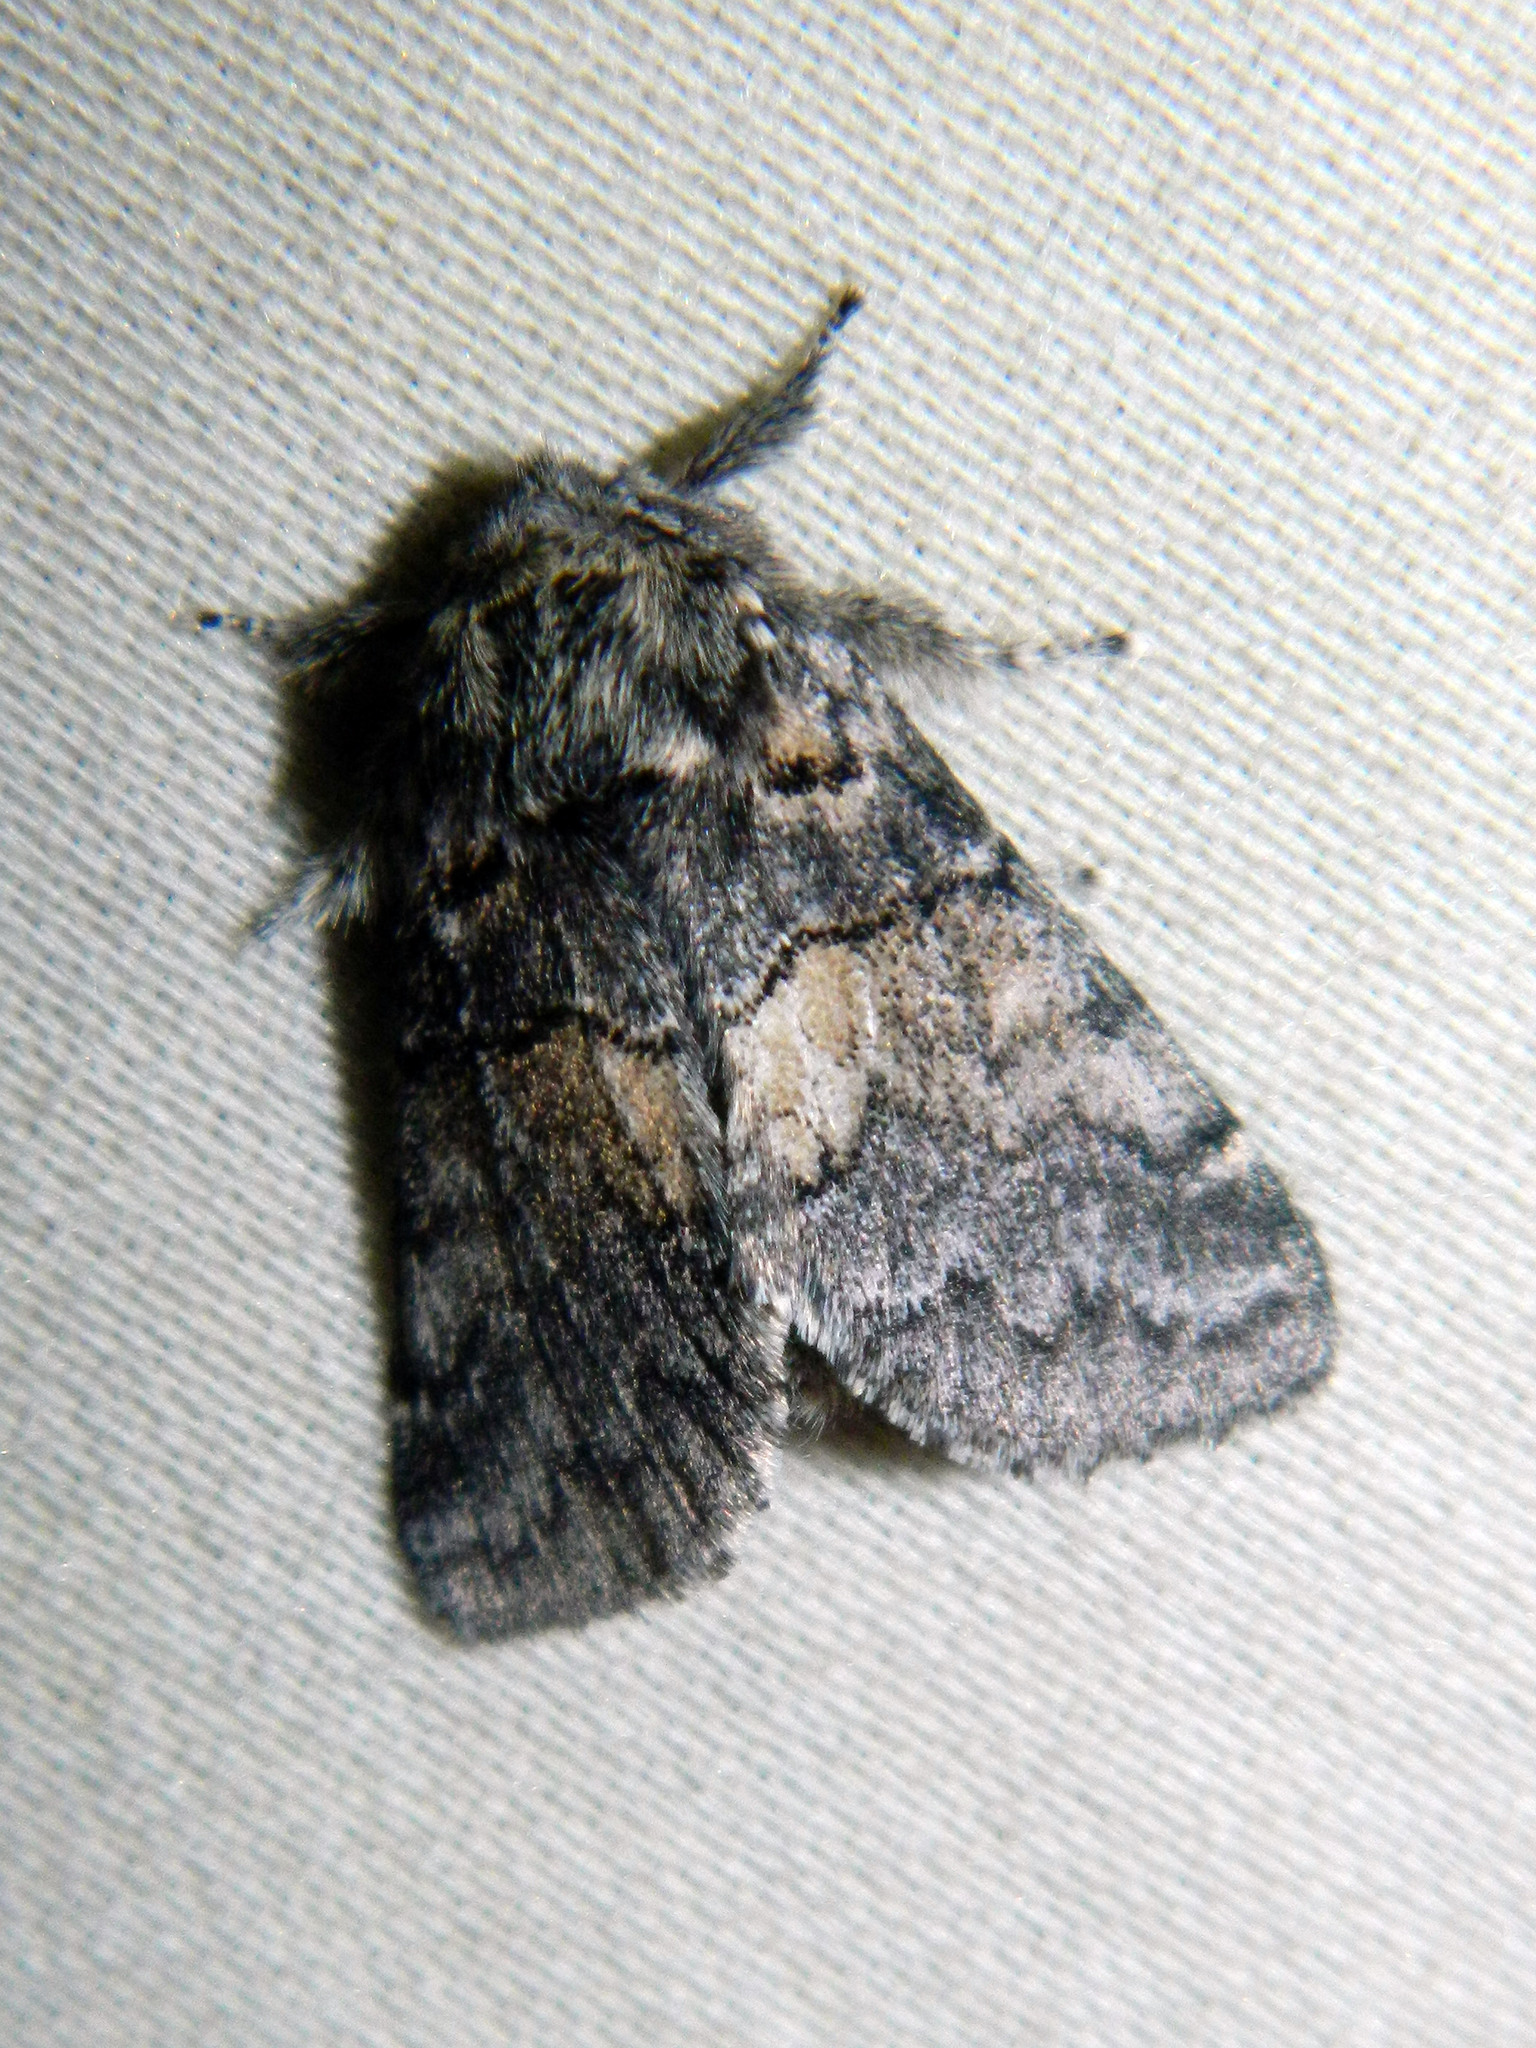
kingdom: Animalia
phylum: Arthropoda
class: Insecta
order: Lepidoptera
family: Notodontidae
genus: Gluphisia
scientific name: Gluphisia septentrionis
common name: Common gluphisia
